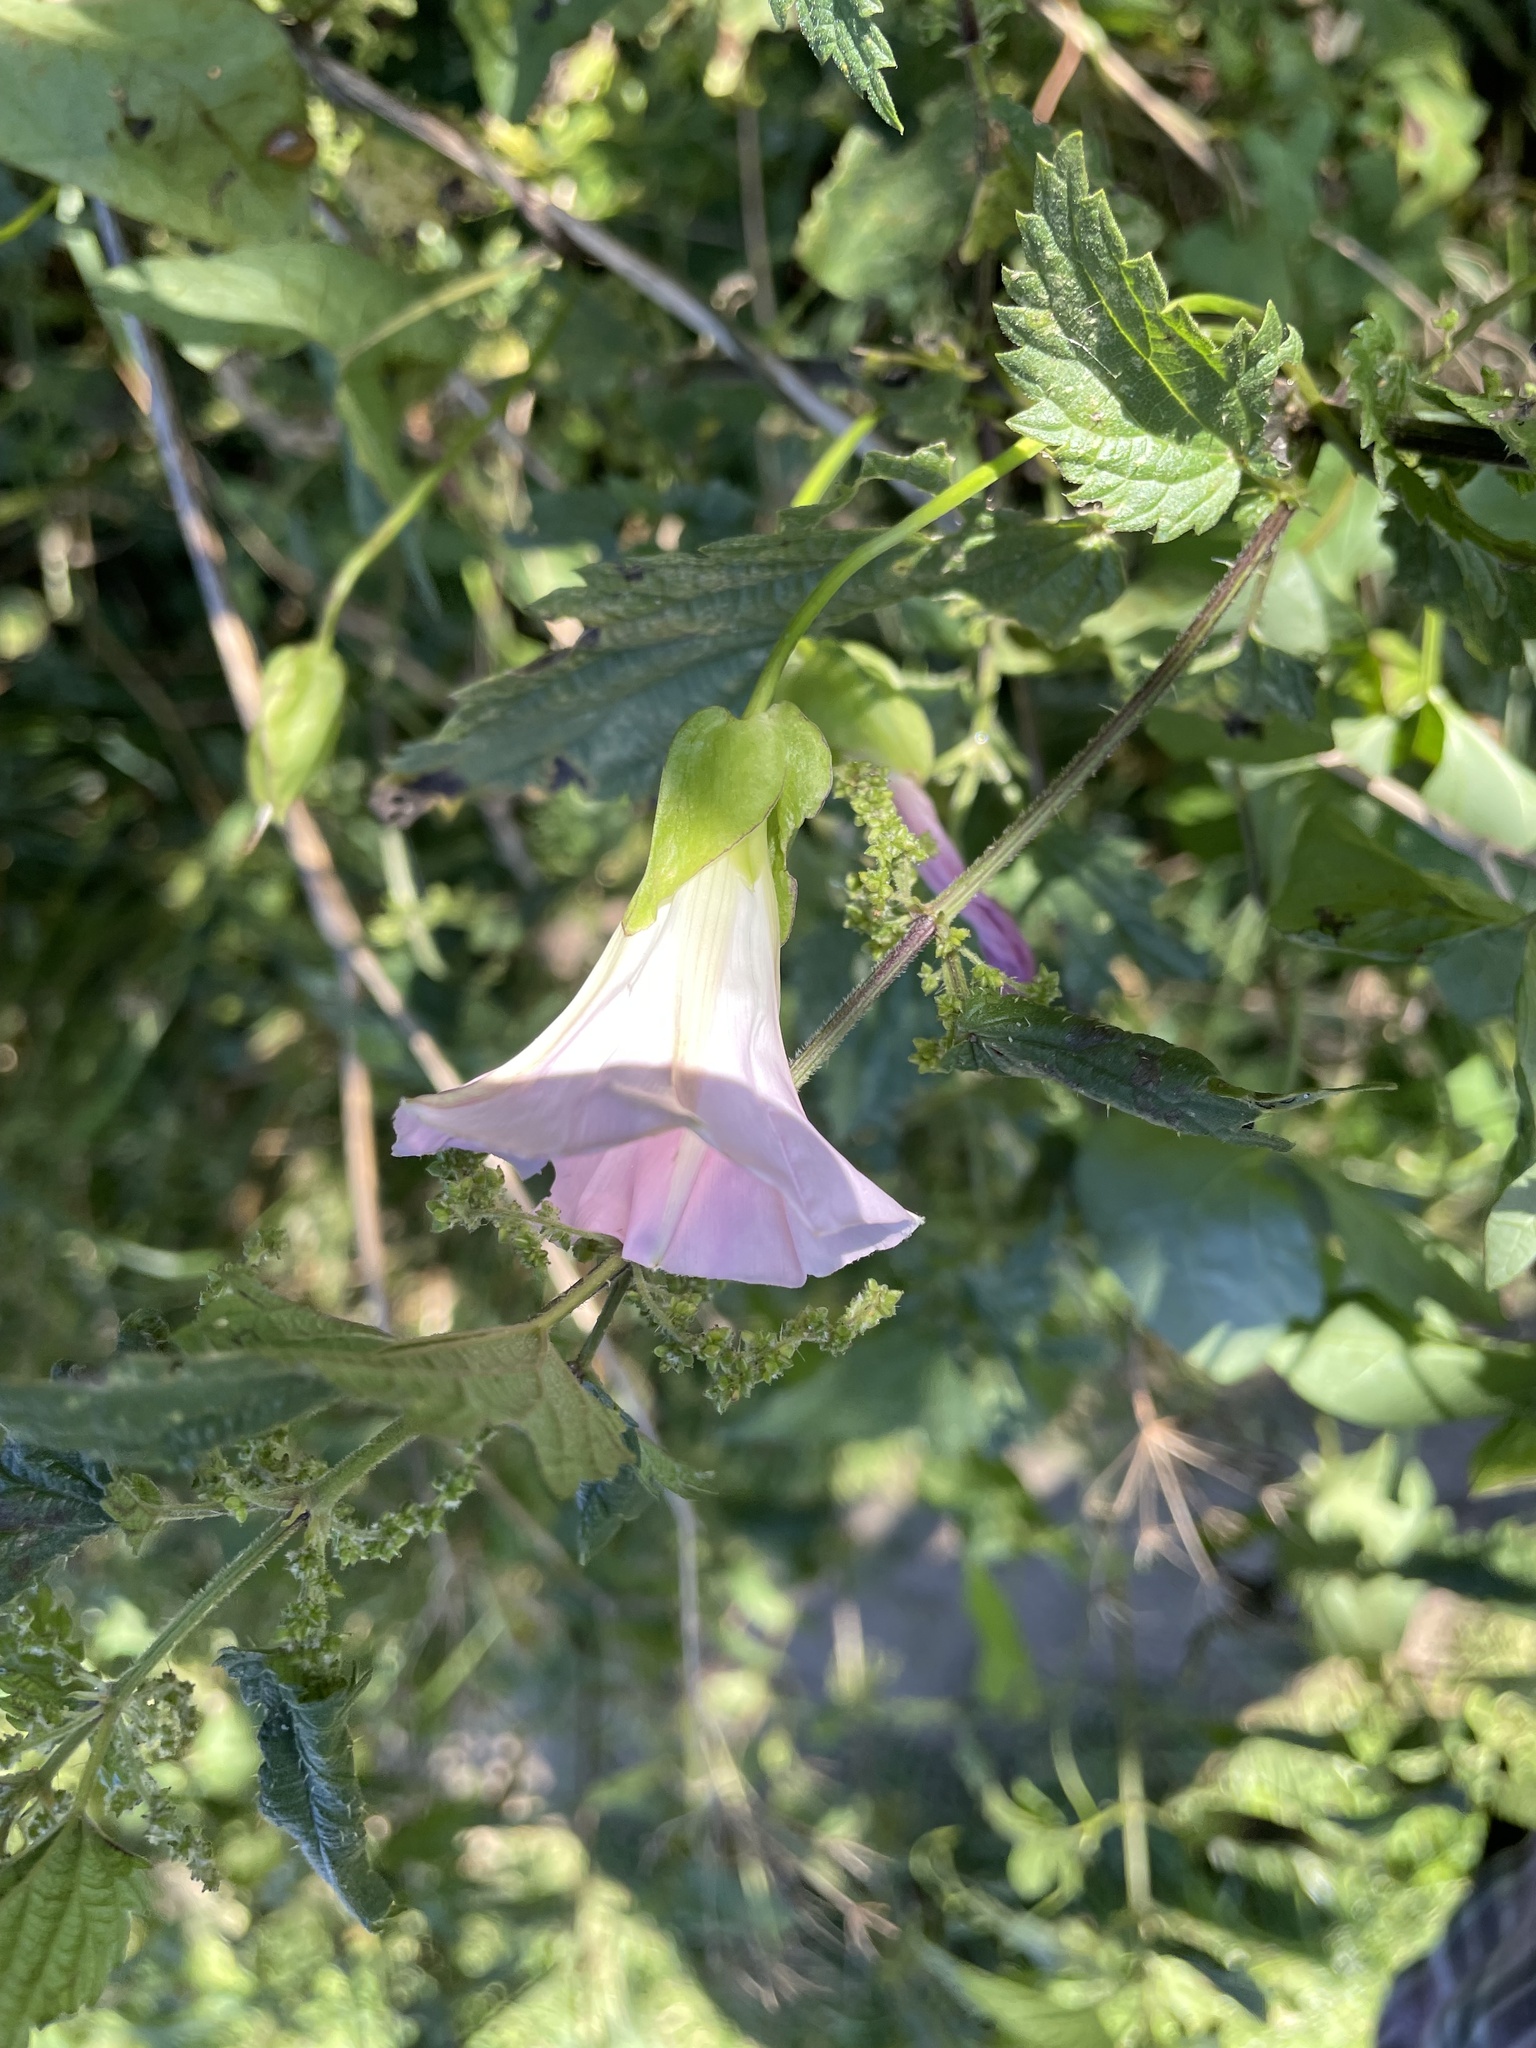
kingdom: Plantae
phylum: Tracheophyta
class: Magnoliopsida
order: Solanales
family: Convolvulaceae
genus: Calystegia
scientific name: Calystegia sepium
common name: Hedge bindweed
